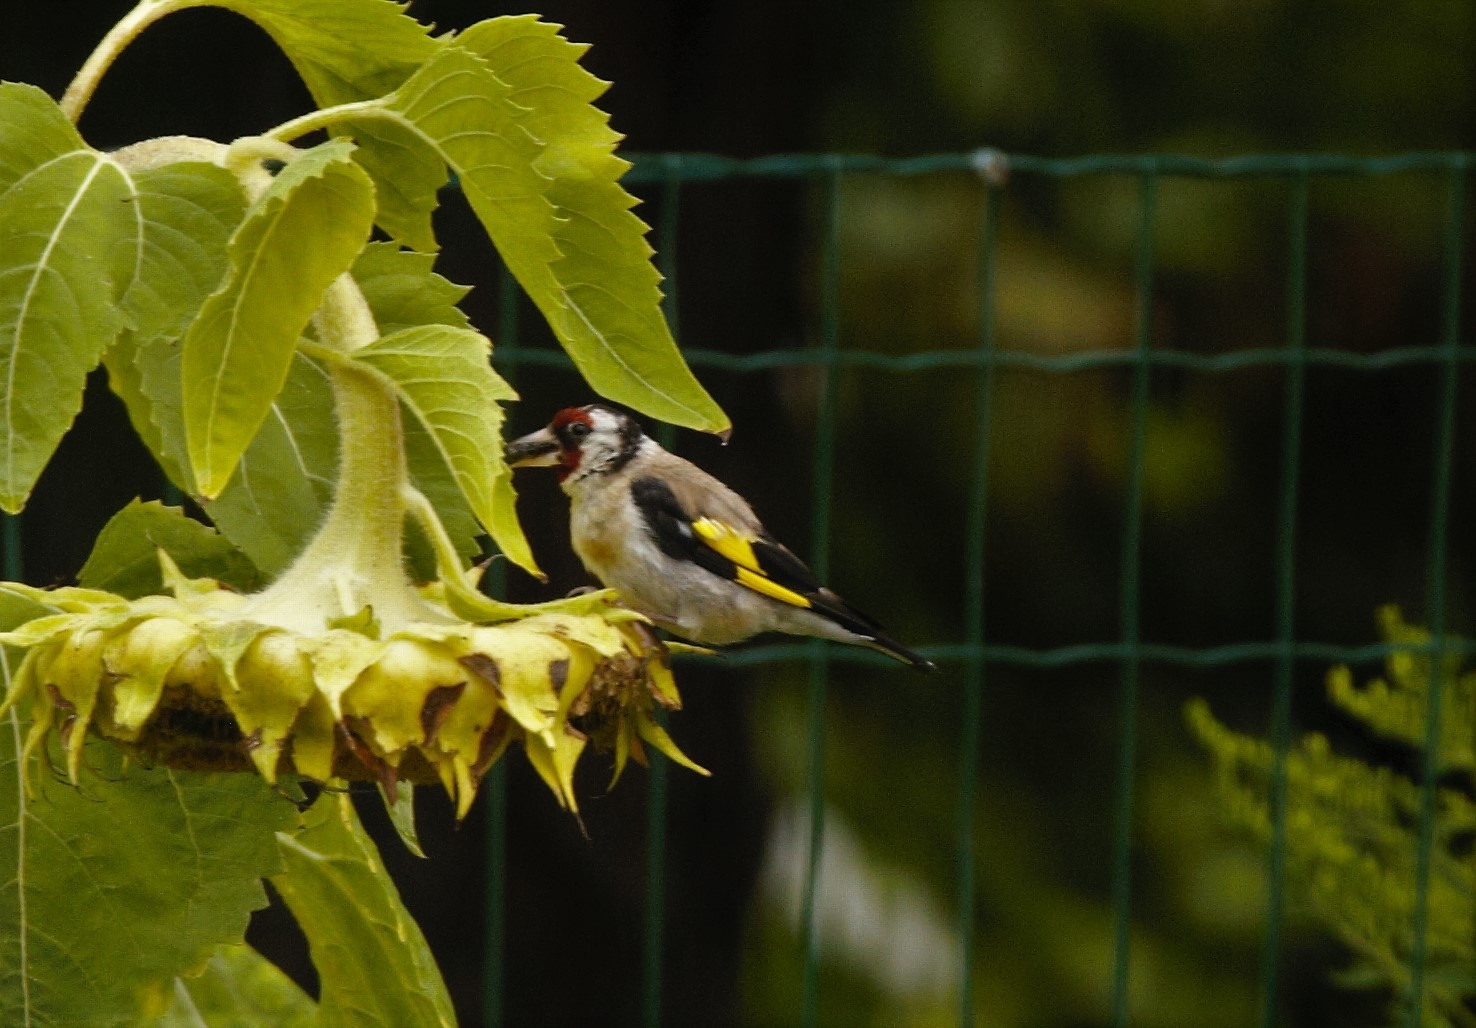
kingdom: Animalia
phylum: Chordata
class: Aves
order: Passeriformes
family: Fringillidae
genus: Carduelis
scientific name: Carduelis carduelis
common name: European goldfinch
